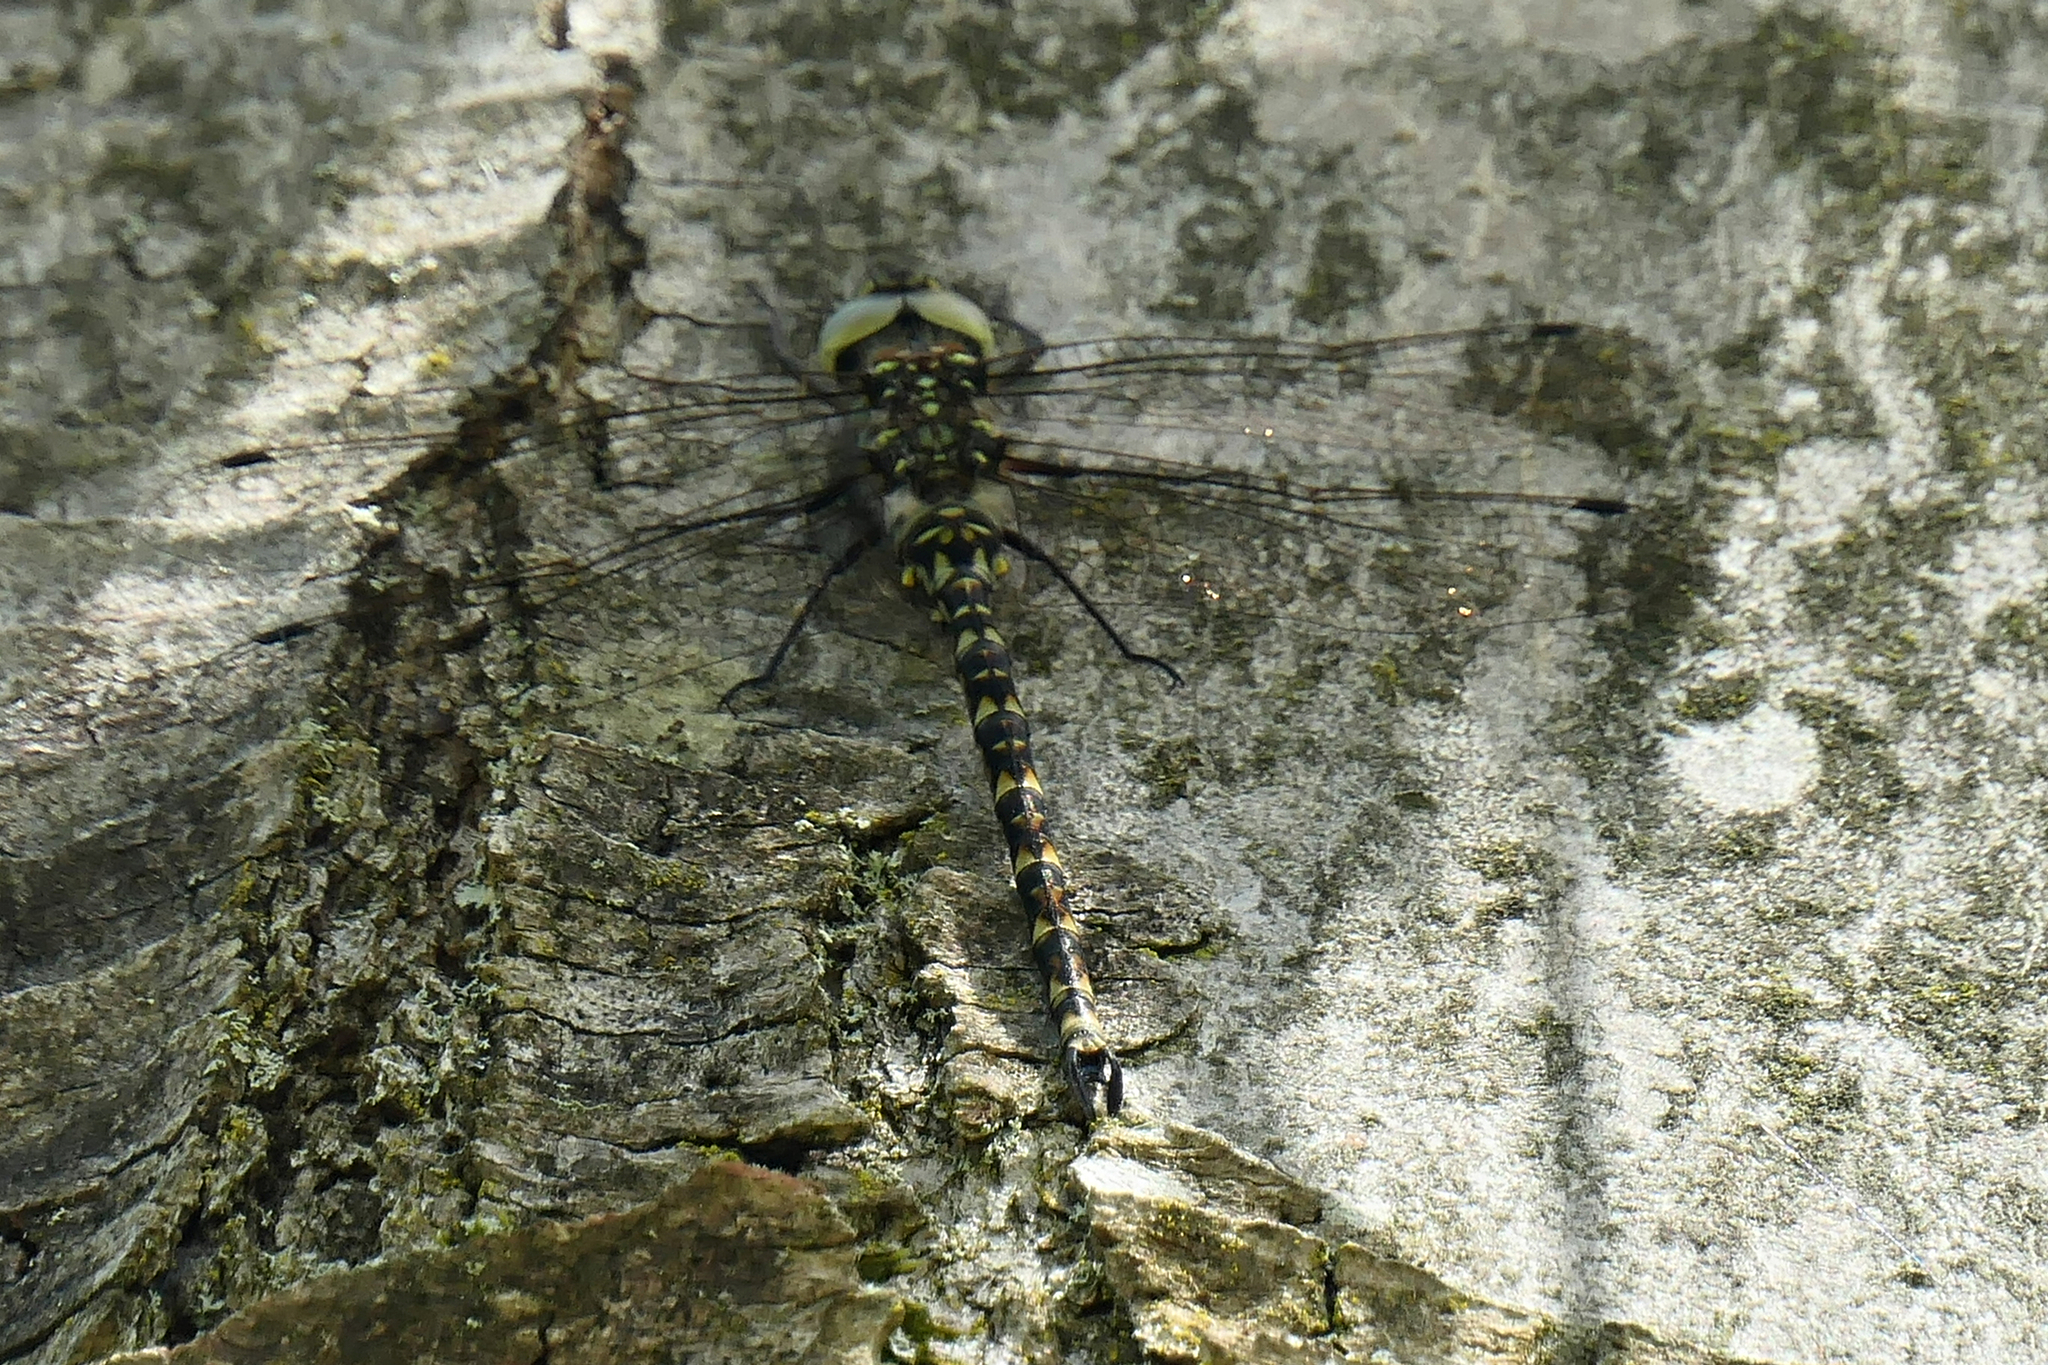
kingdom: Animalia
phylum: Arthropoda
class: Insecta
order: Odonata
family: Aeshnidae
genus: Gomphaeschna
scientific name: Gomphaeschna furcillata
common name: Harlequin darner
